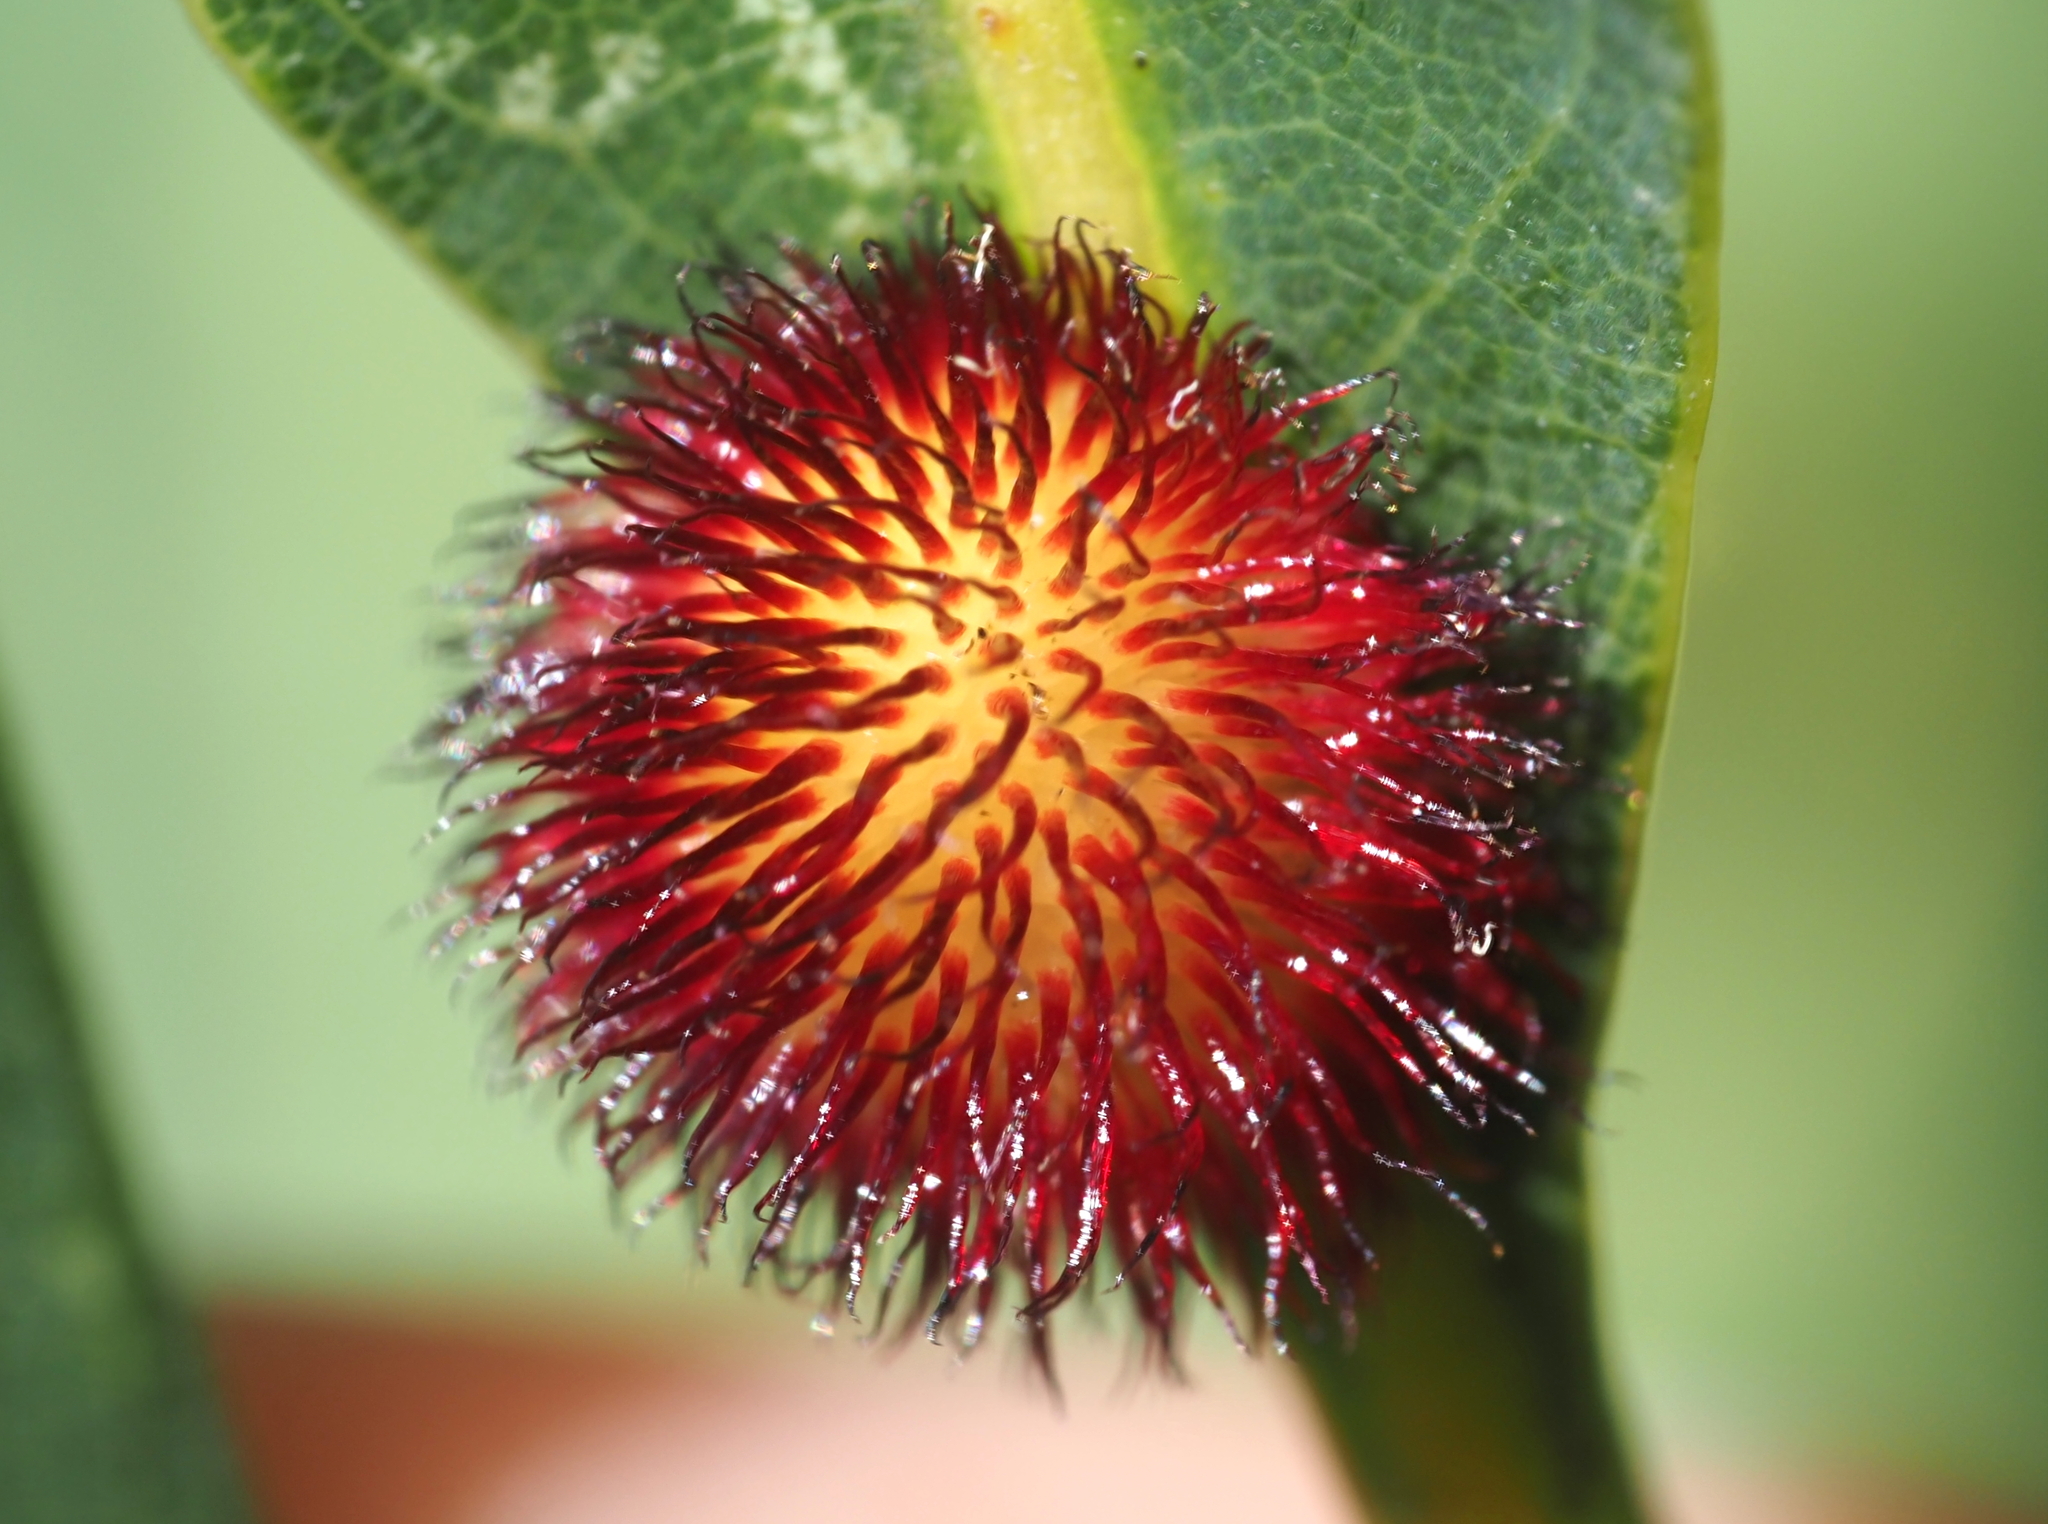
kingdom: Animalia
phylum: Arthropoda
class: Insecta
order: Hymenoptera
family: Cynipidae
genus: Acraspis
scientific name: Acraspis erinacei
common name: Hedgehog gall wasp
